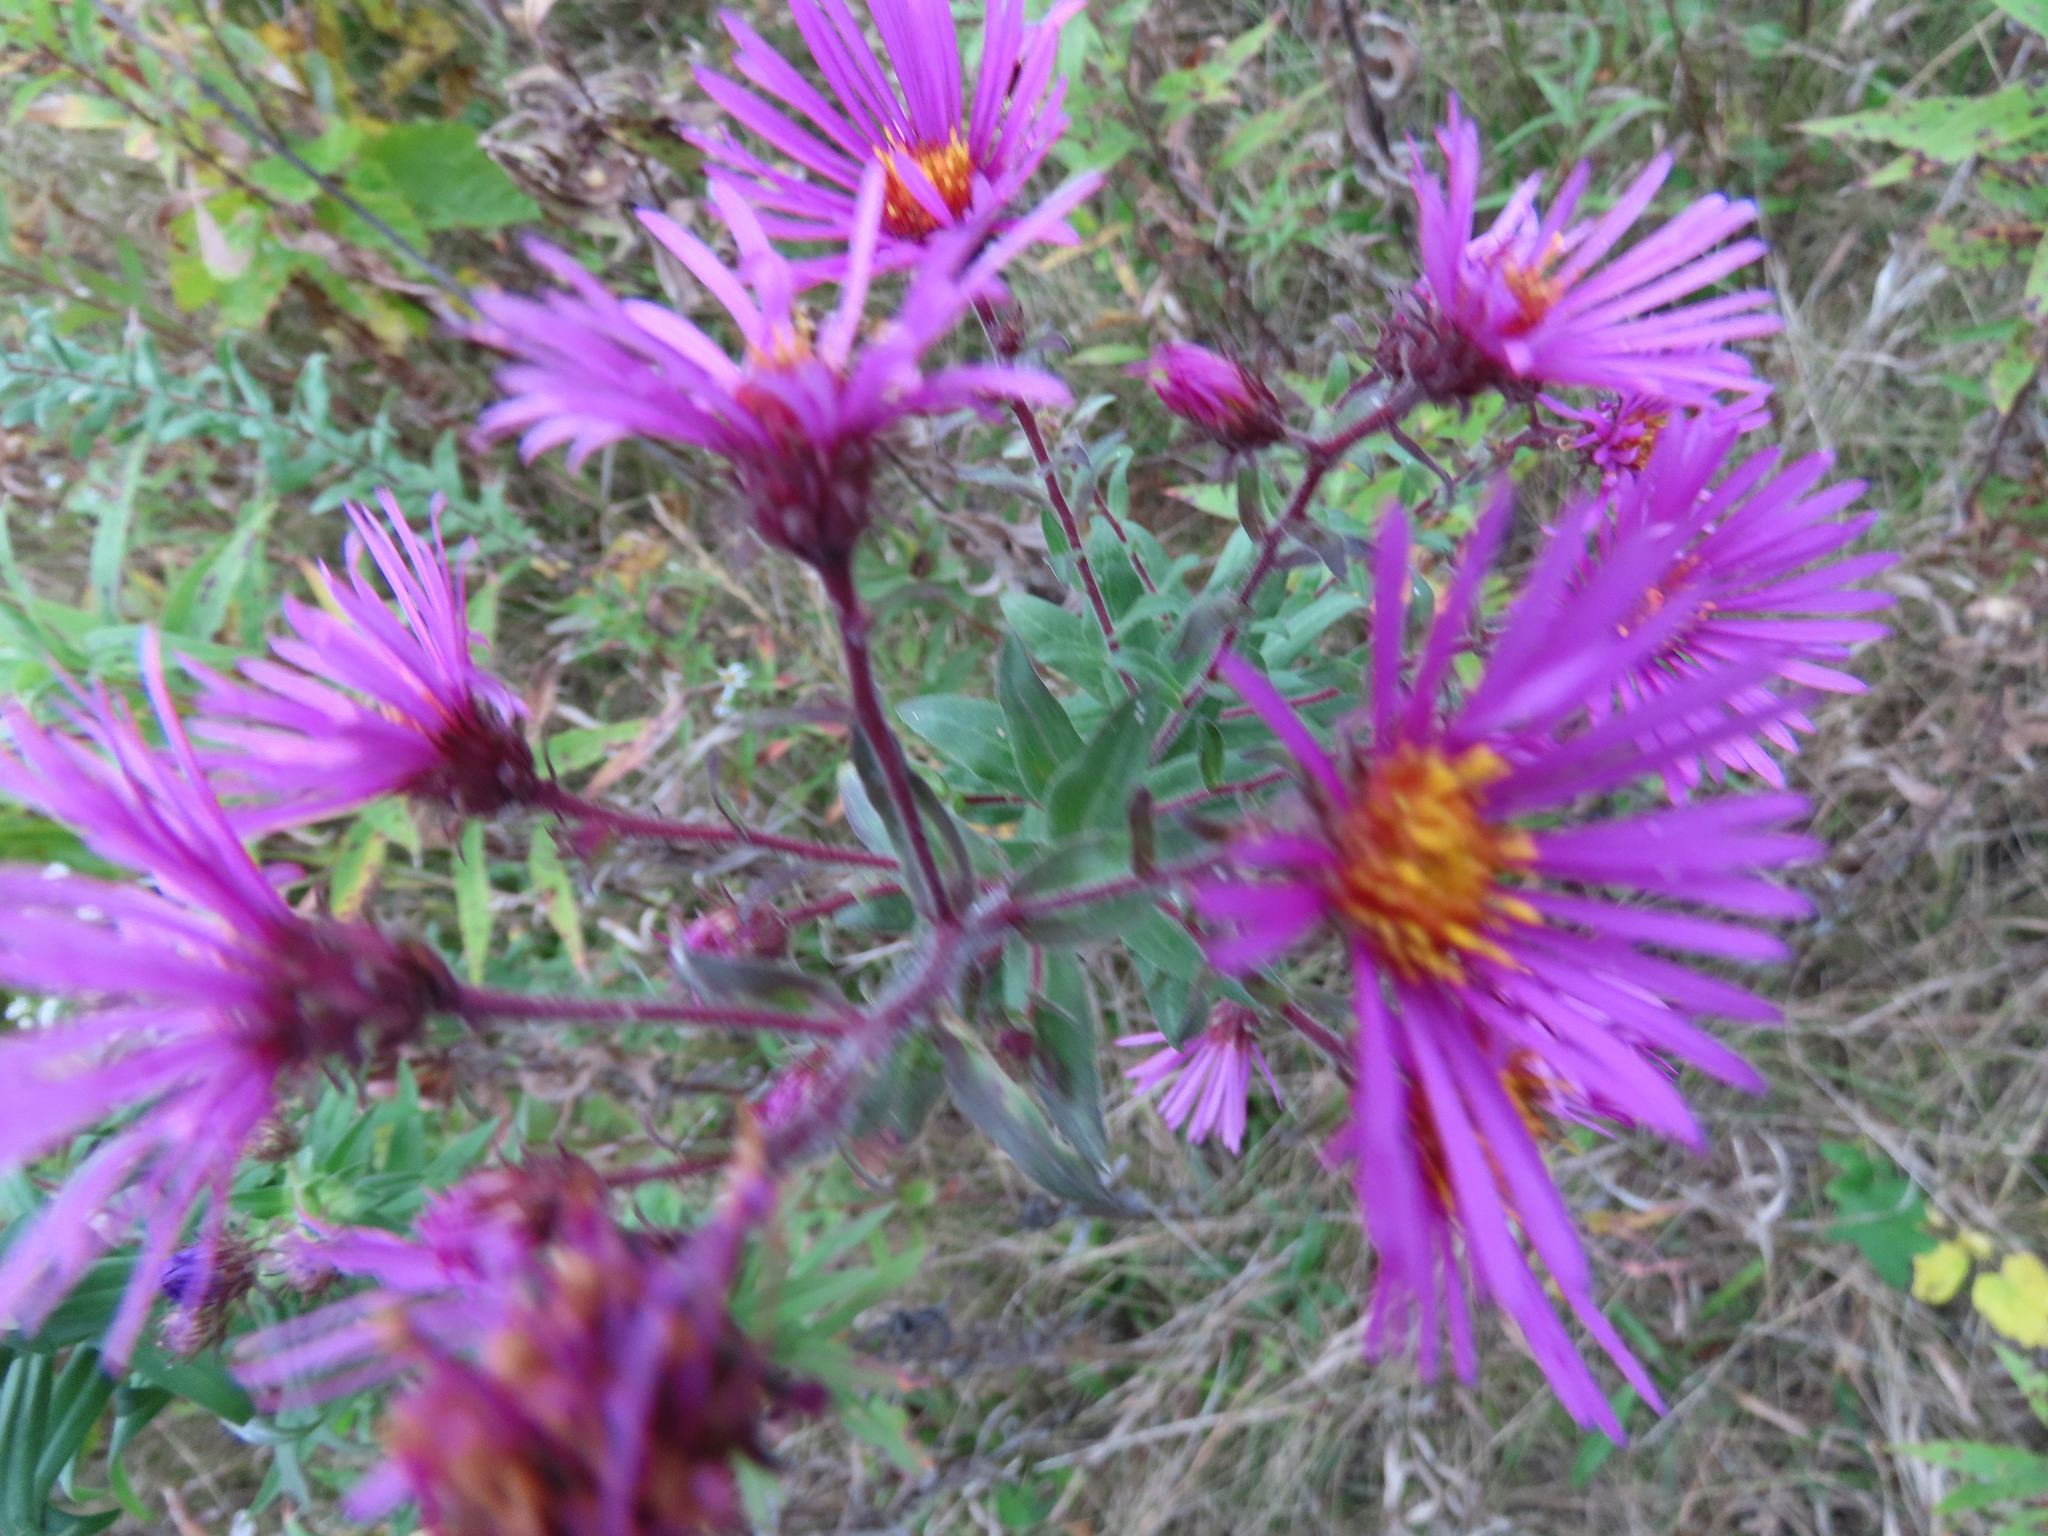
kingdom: Plantae
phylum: Tracheophyta
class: Magnoliopsida
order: Asterales
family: Asteraceae
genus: Symphyotrichum
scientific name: Symphyotrichum novae-angliae
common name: Michaelmas daisy
